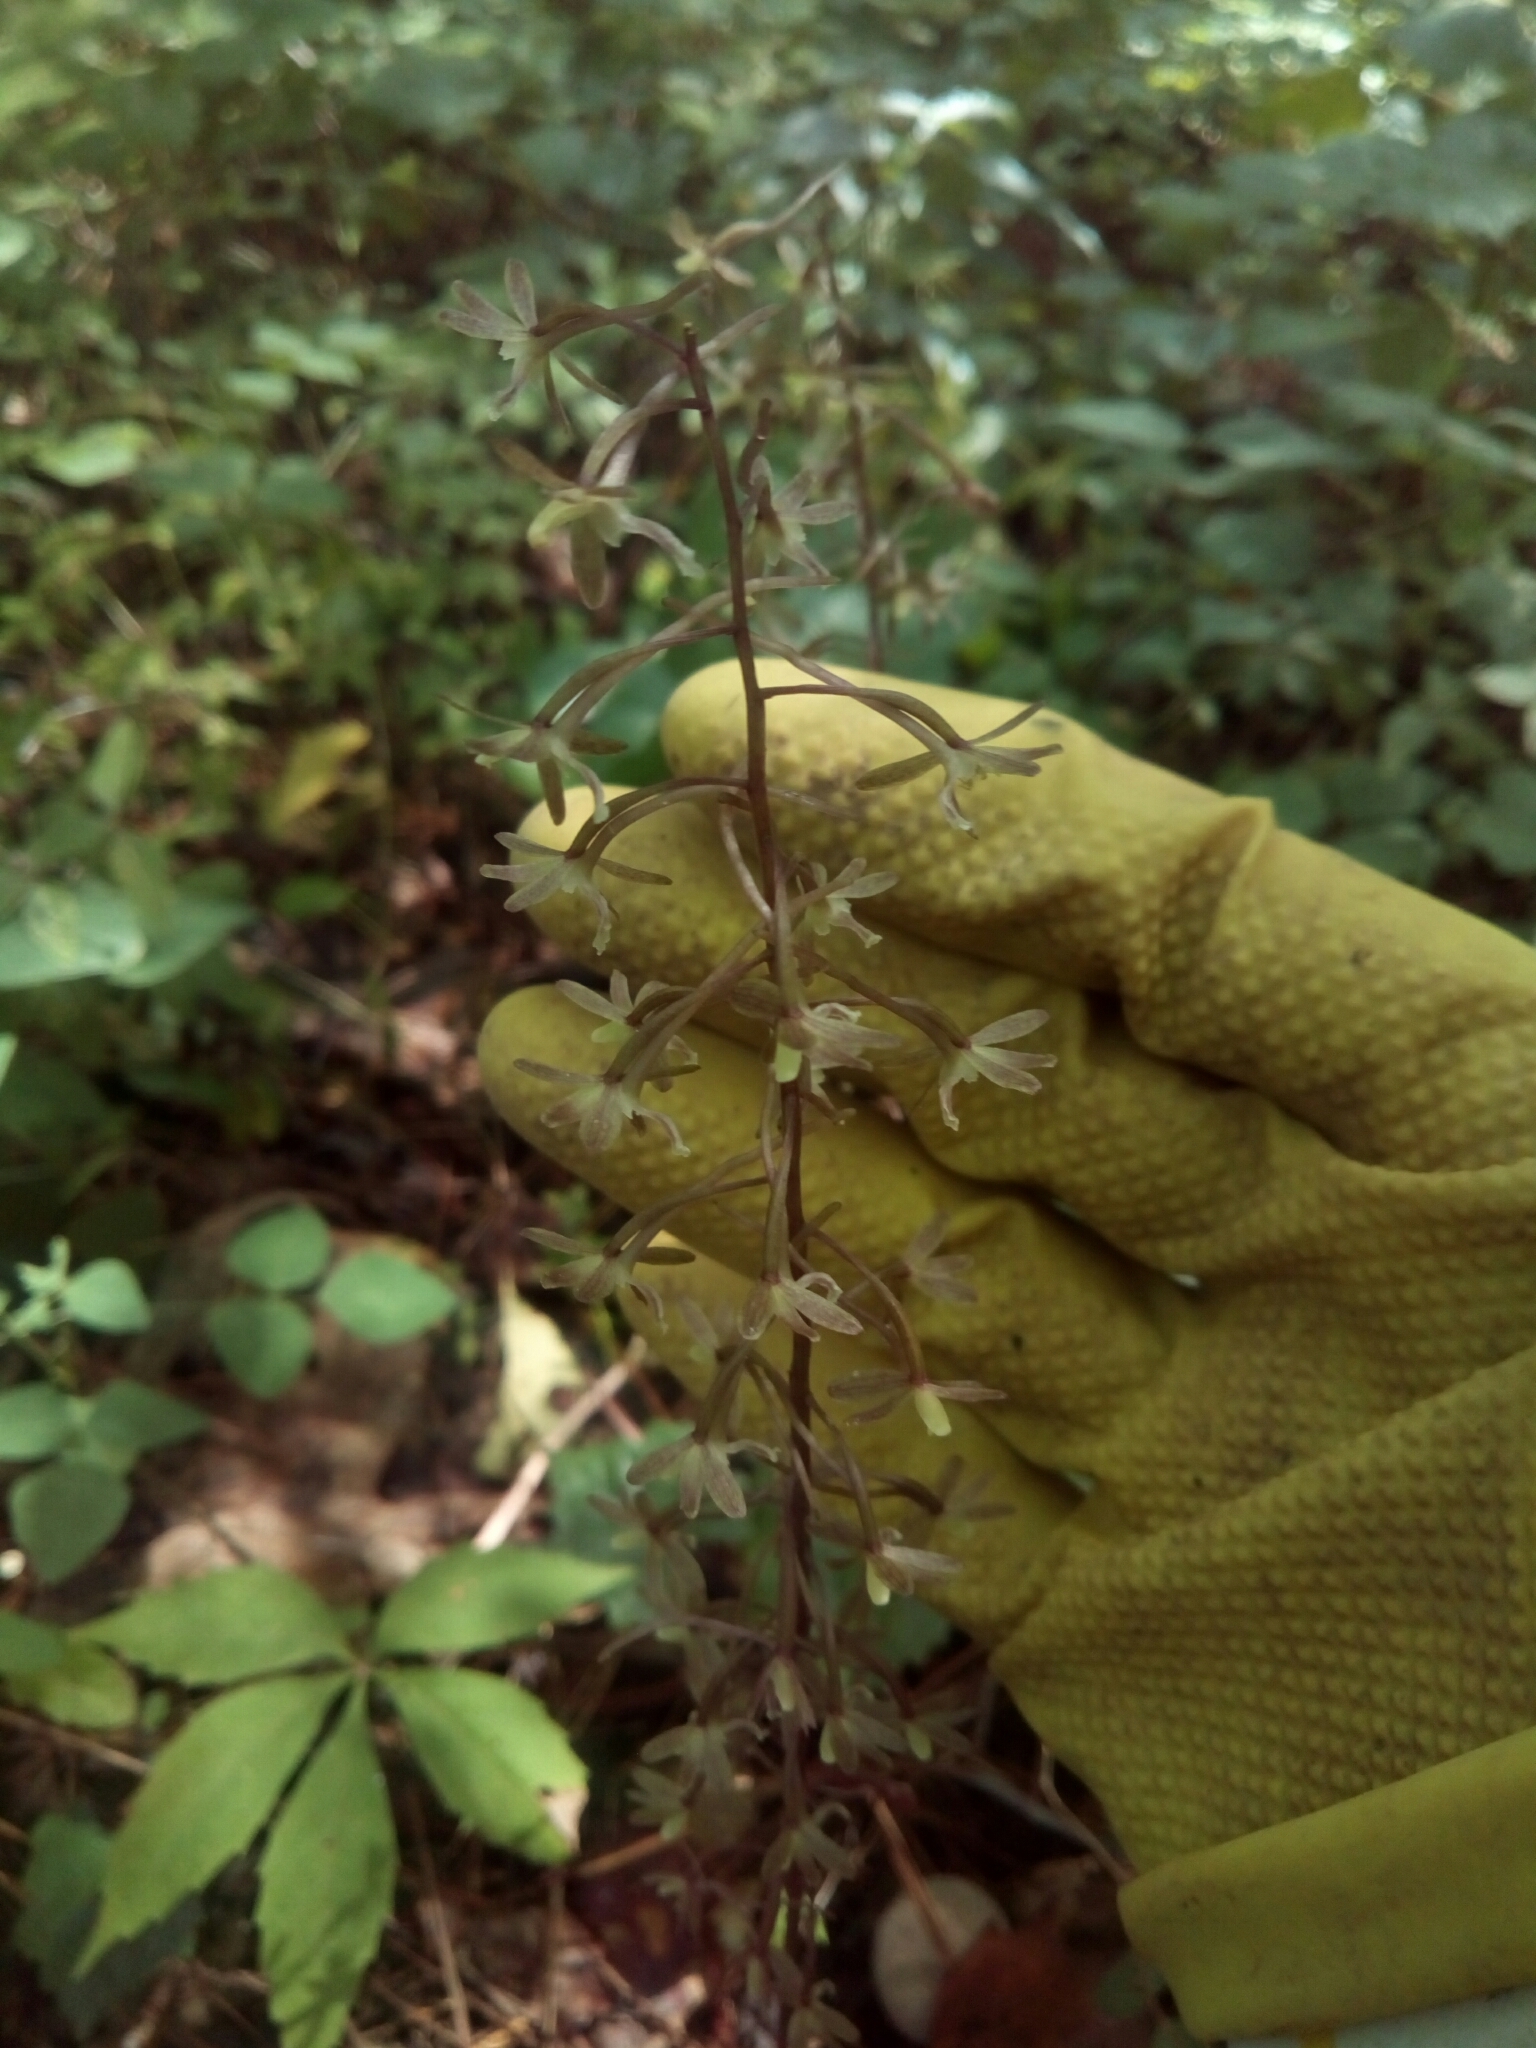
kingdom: Plantae
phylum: Tracheophyta
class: Liliopsida
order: Asparagales
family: Orchidaceae
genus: Tipularia
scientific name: Tipularia discolor
